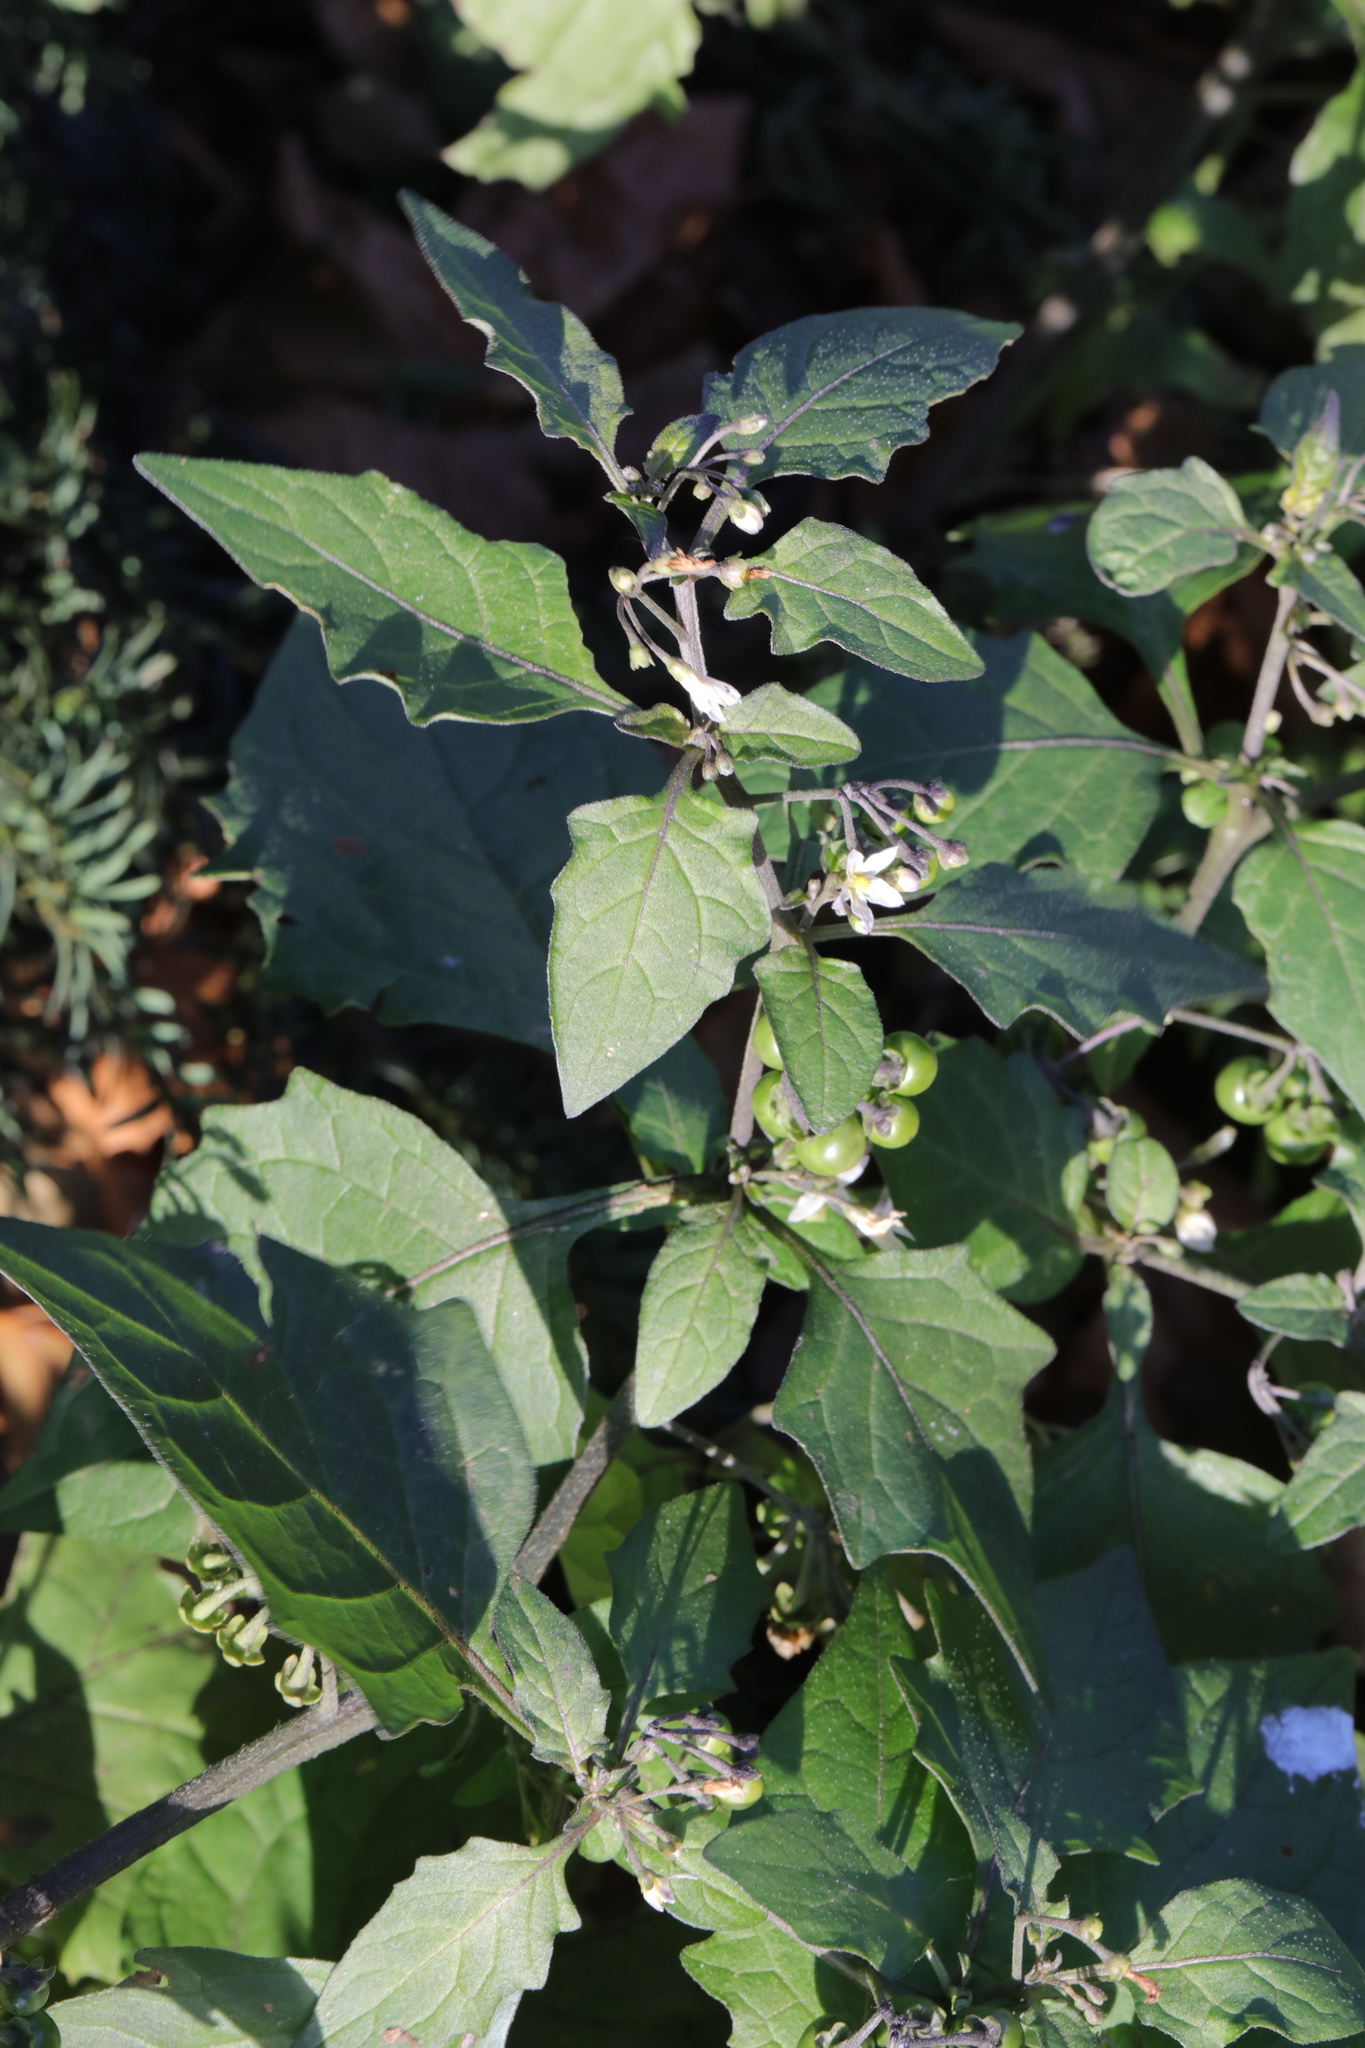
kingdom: Plantae
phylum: Tracheophyta
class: Magnoliopsida
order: Solanales
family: Solanaceae
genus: Solanum
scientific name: Solanum nigrum
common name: Black nightshade
